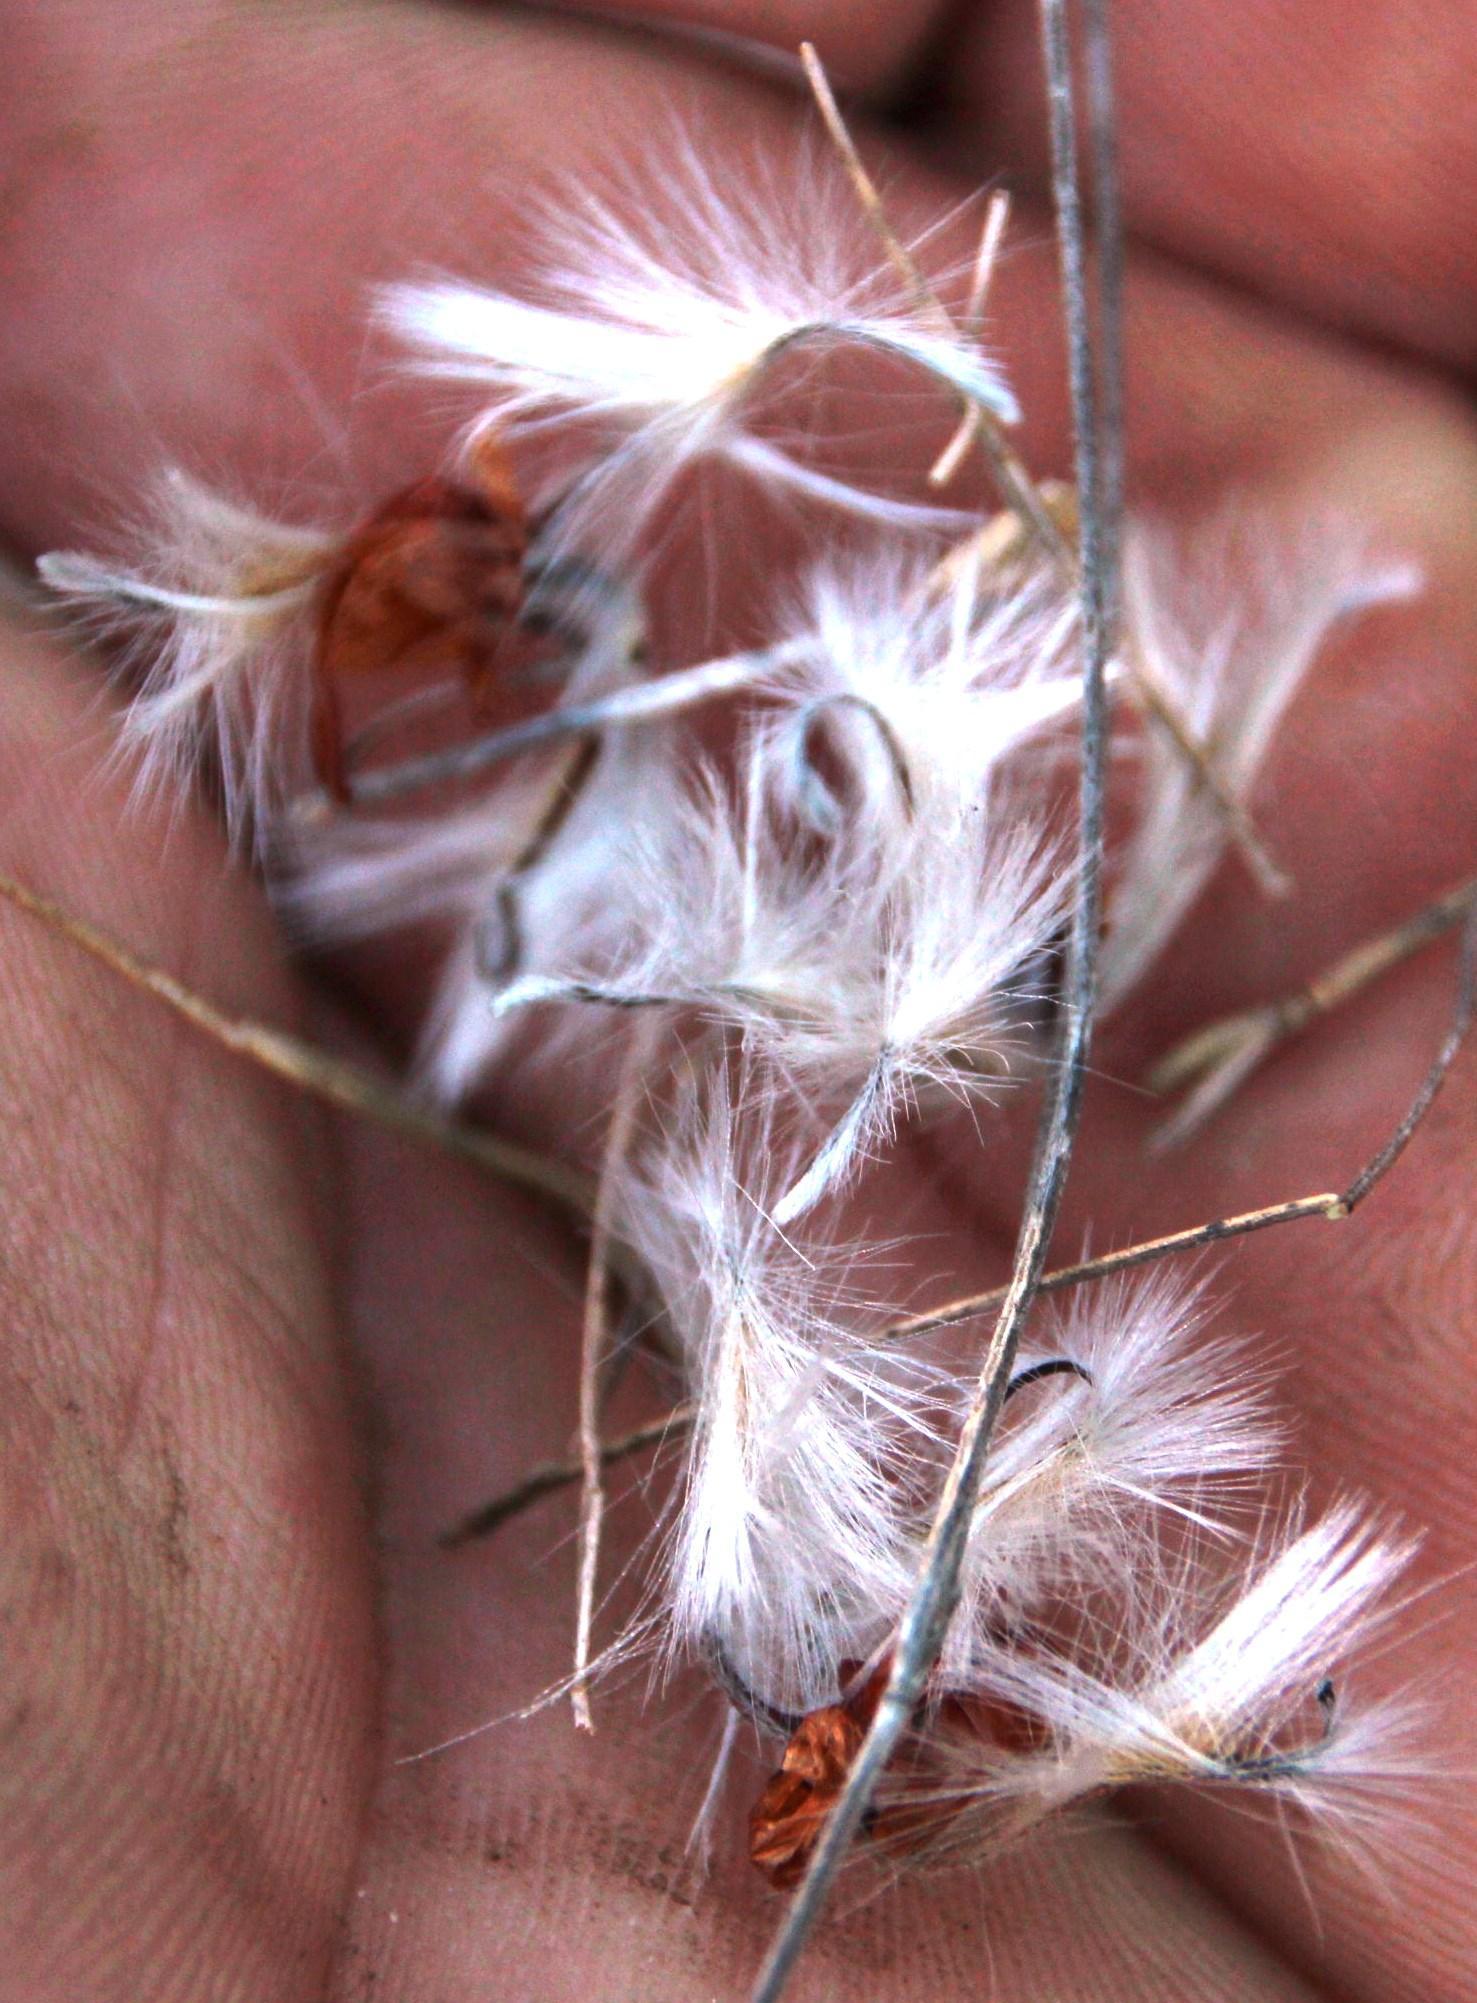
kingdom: Plantae
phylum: Tracheophyta
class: Magnoliopsida
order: Proteales
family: Proteaceae
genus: Leucadendron
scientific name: Leucadendron argenteum
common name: Cape silver tree
